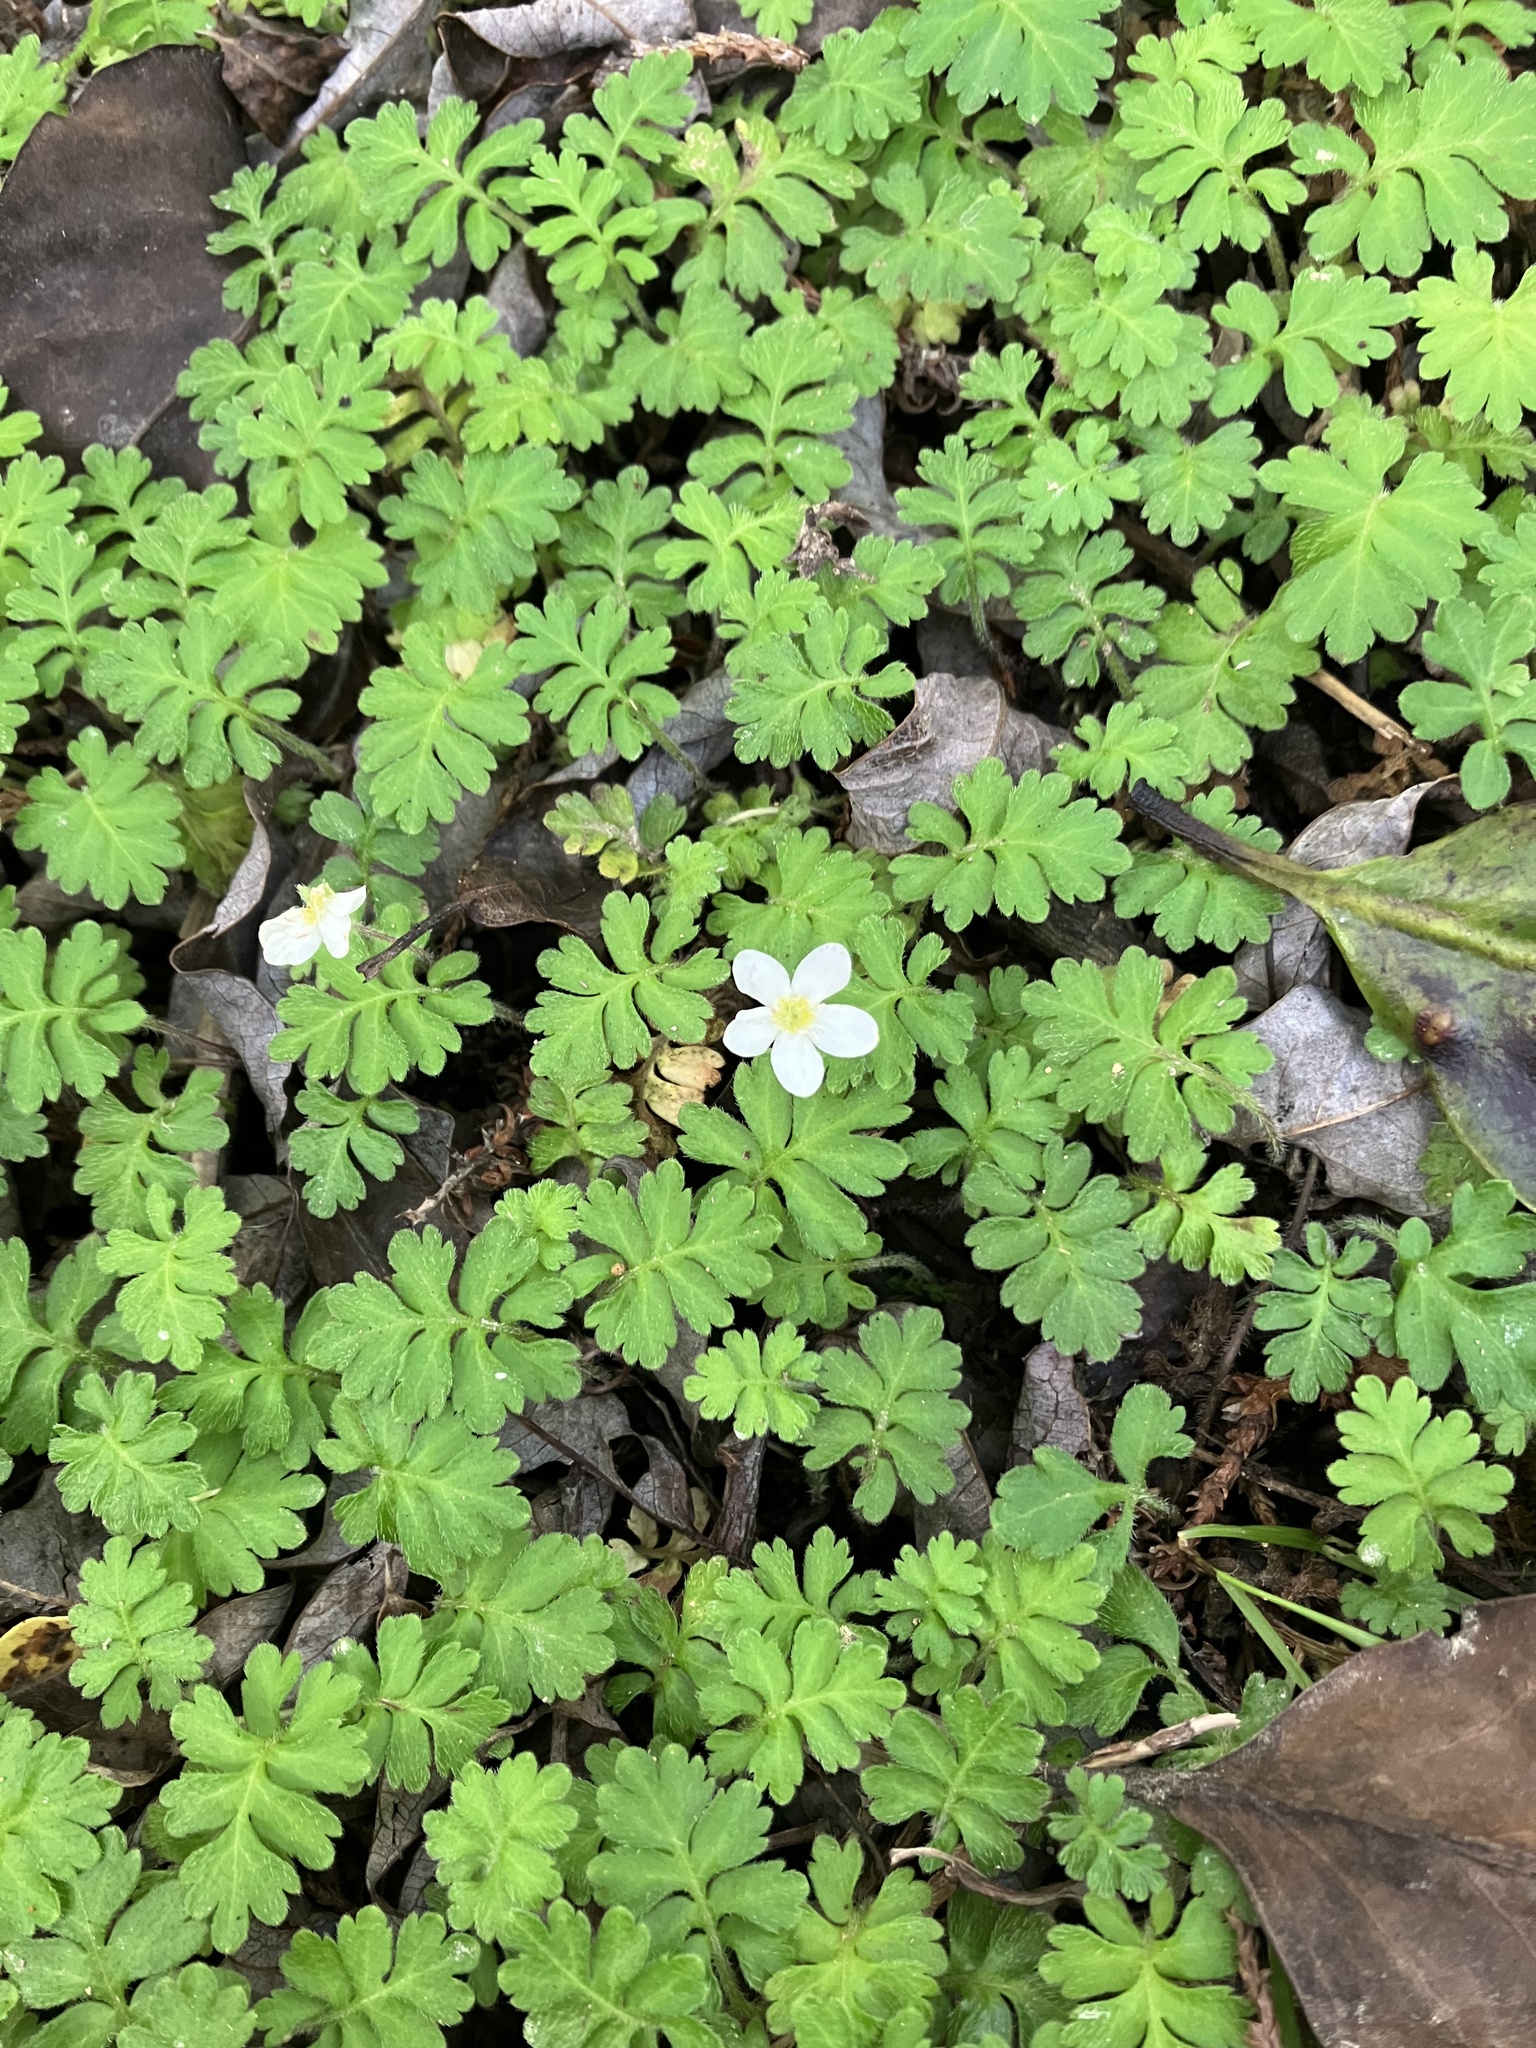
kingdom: Plantae
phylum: Tracheophyta
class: Magnoliopsida
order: Lamiales
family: Plantaginaceae
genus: Ellisiophyllum
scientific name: Ellisiophyllum pinnatum
